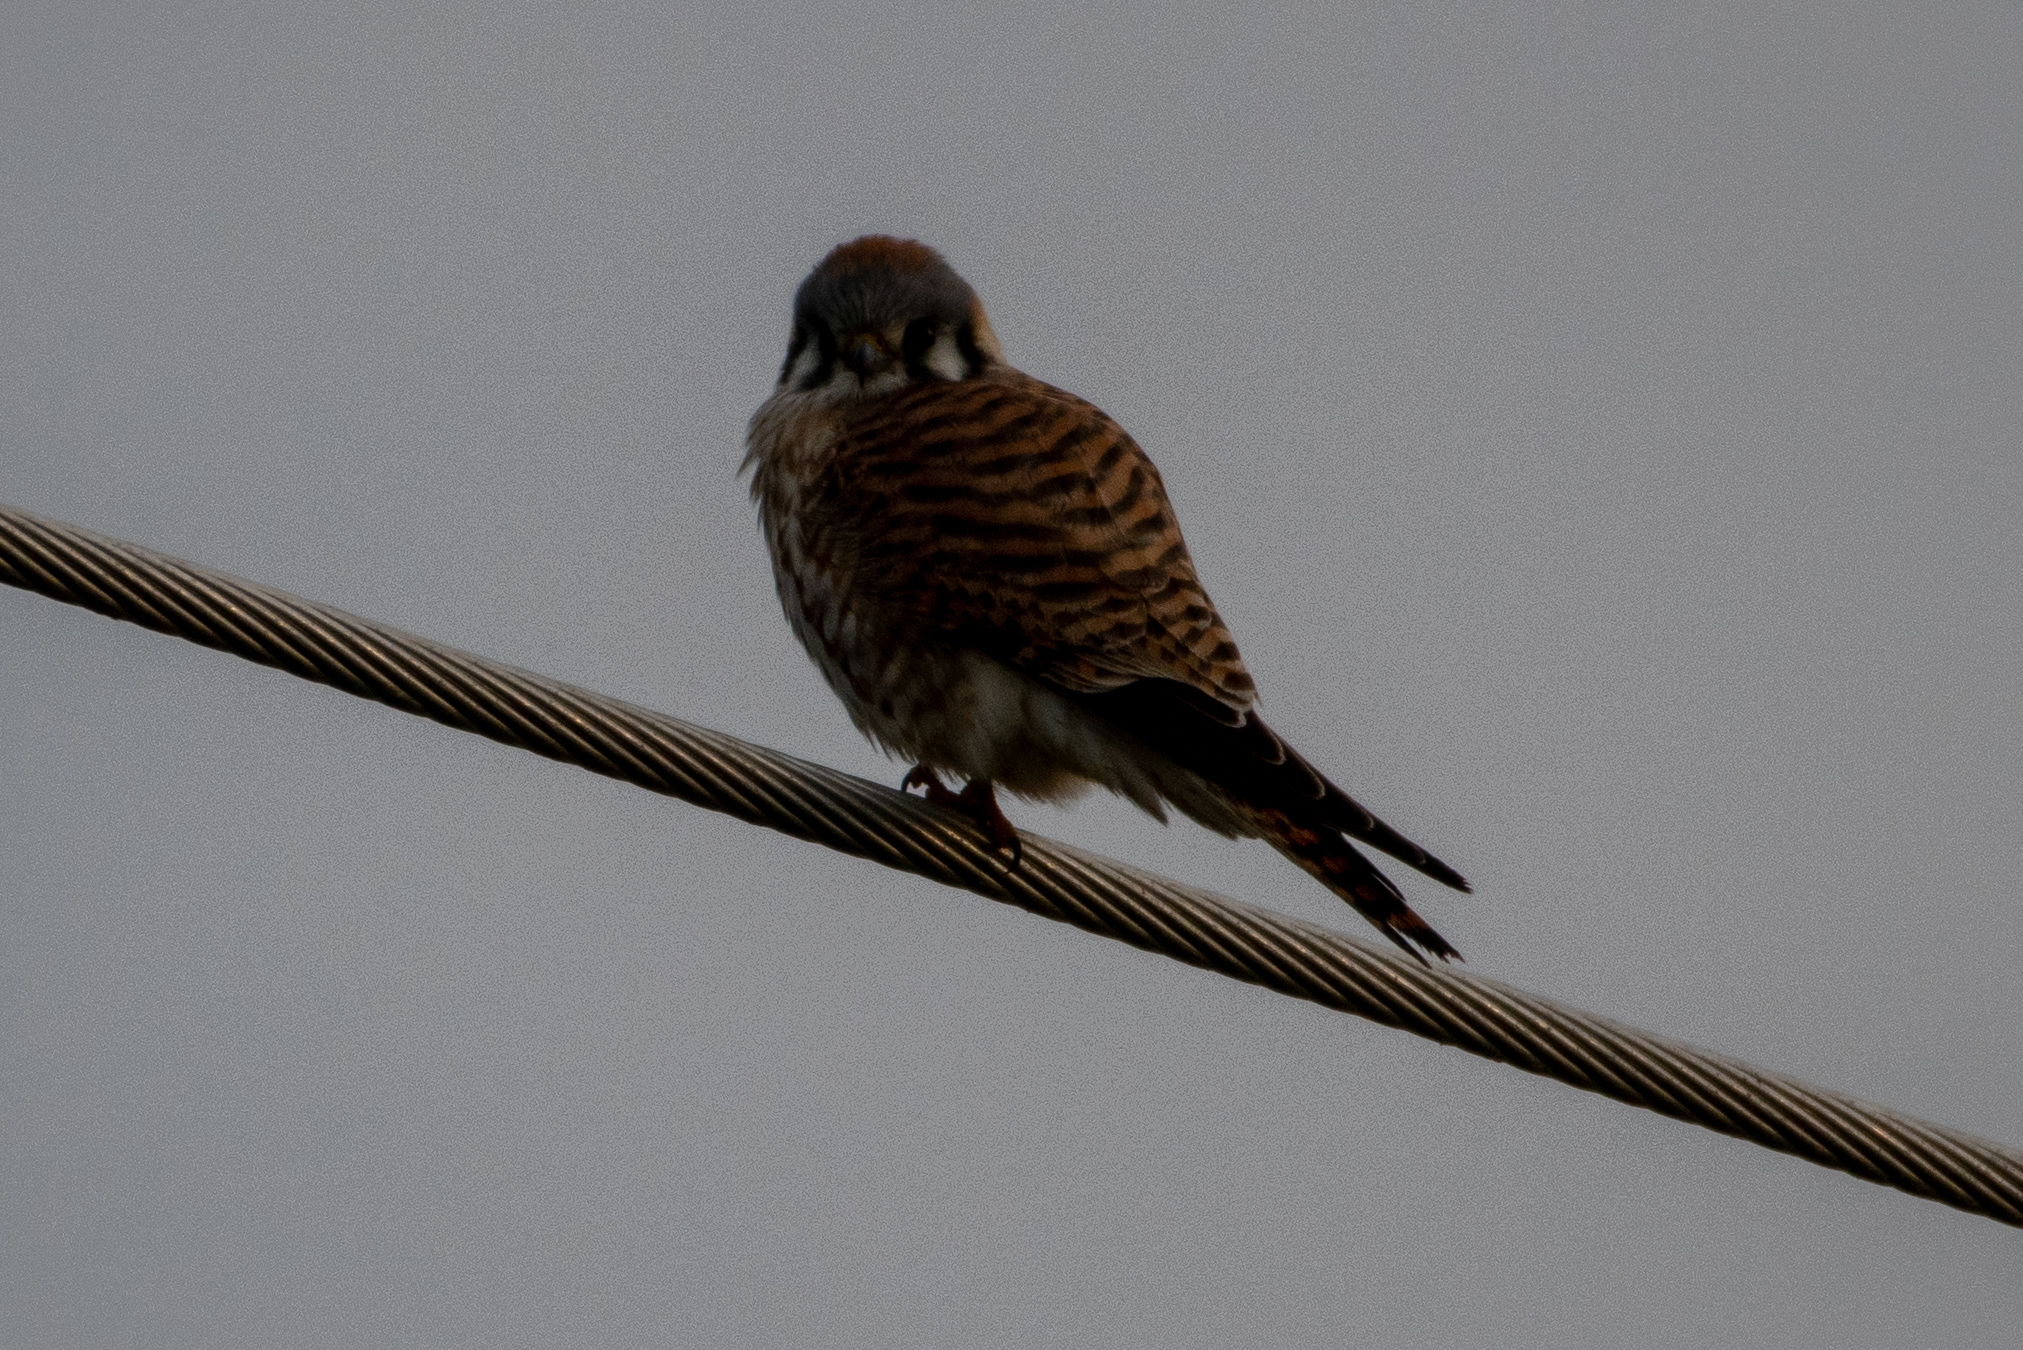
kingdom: Animalia
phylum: Chordata
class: Aves
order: Falconiformes
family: Falconidae
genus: Falco
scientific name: Falco sparverius
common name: American kestrel
